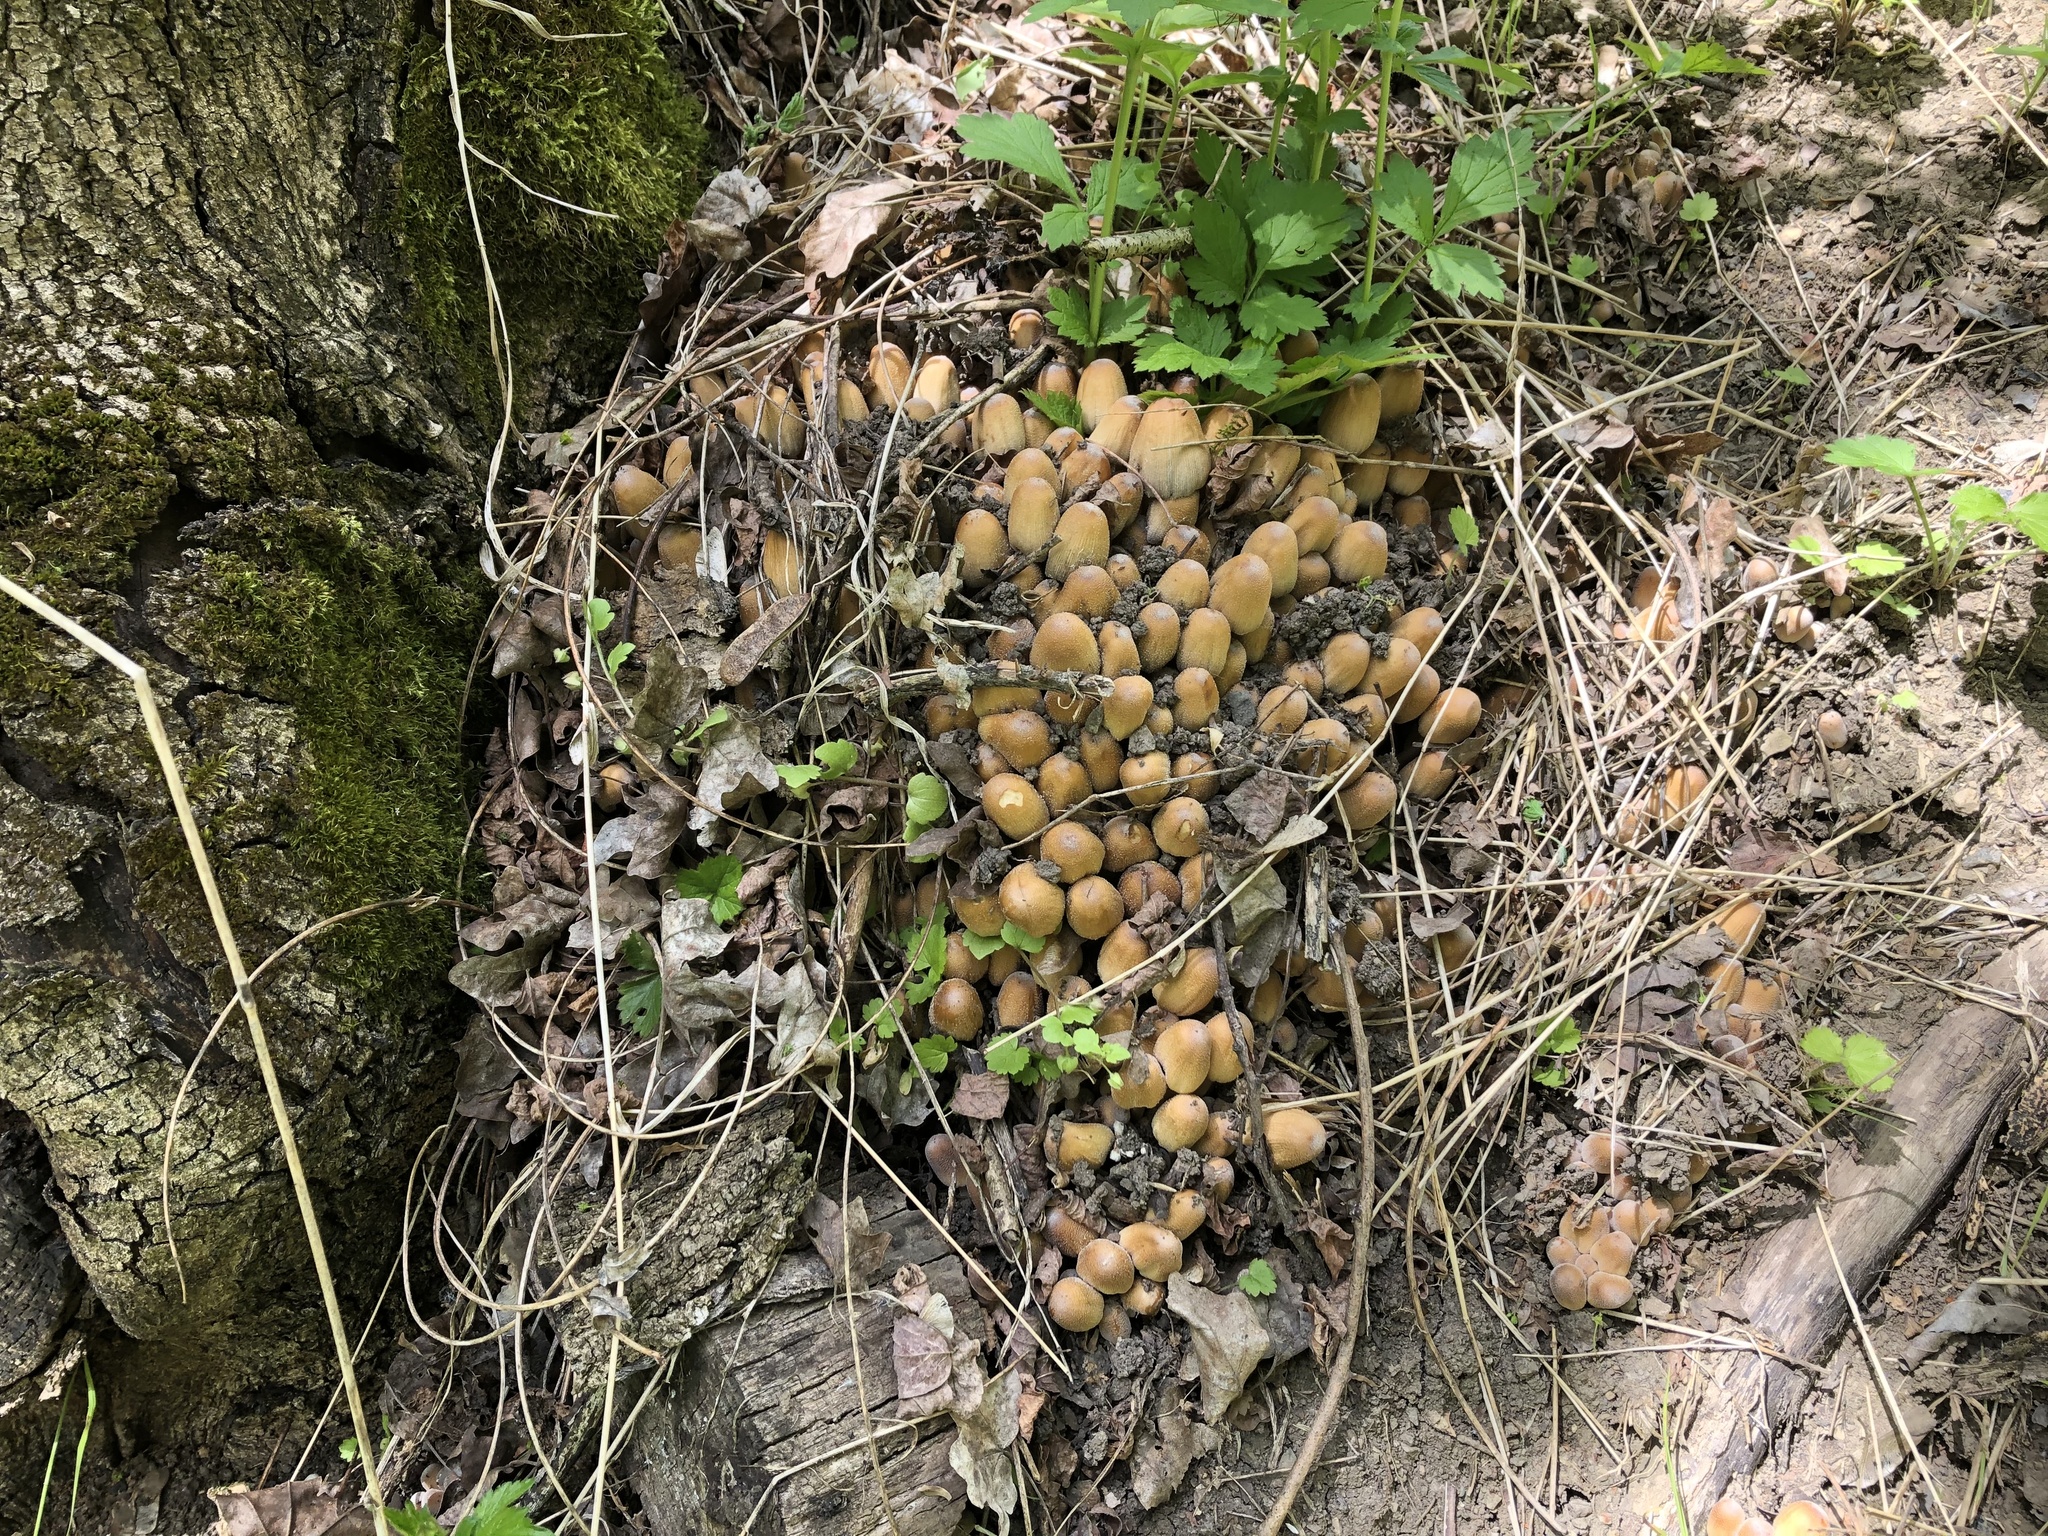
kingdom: Fungi
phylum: Basidiomycota
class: Agaricomycetes
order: Agaricales
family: Psathyrellaceae
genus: Coprinellus
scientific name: Coprinellus micaceus
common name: Glistening ink-cap
